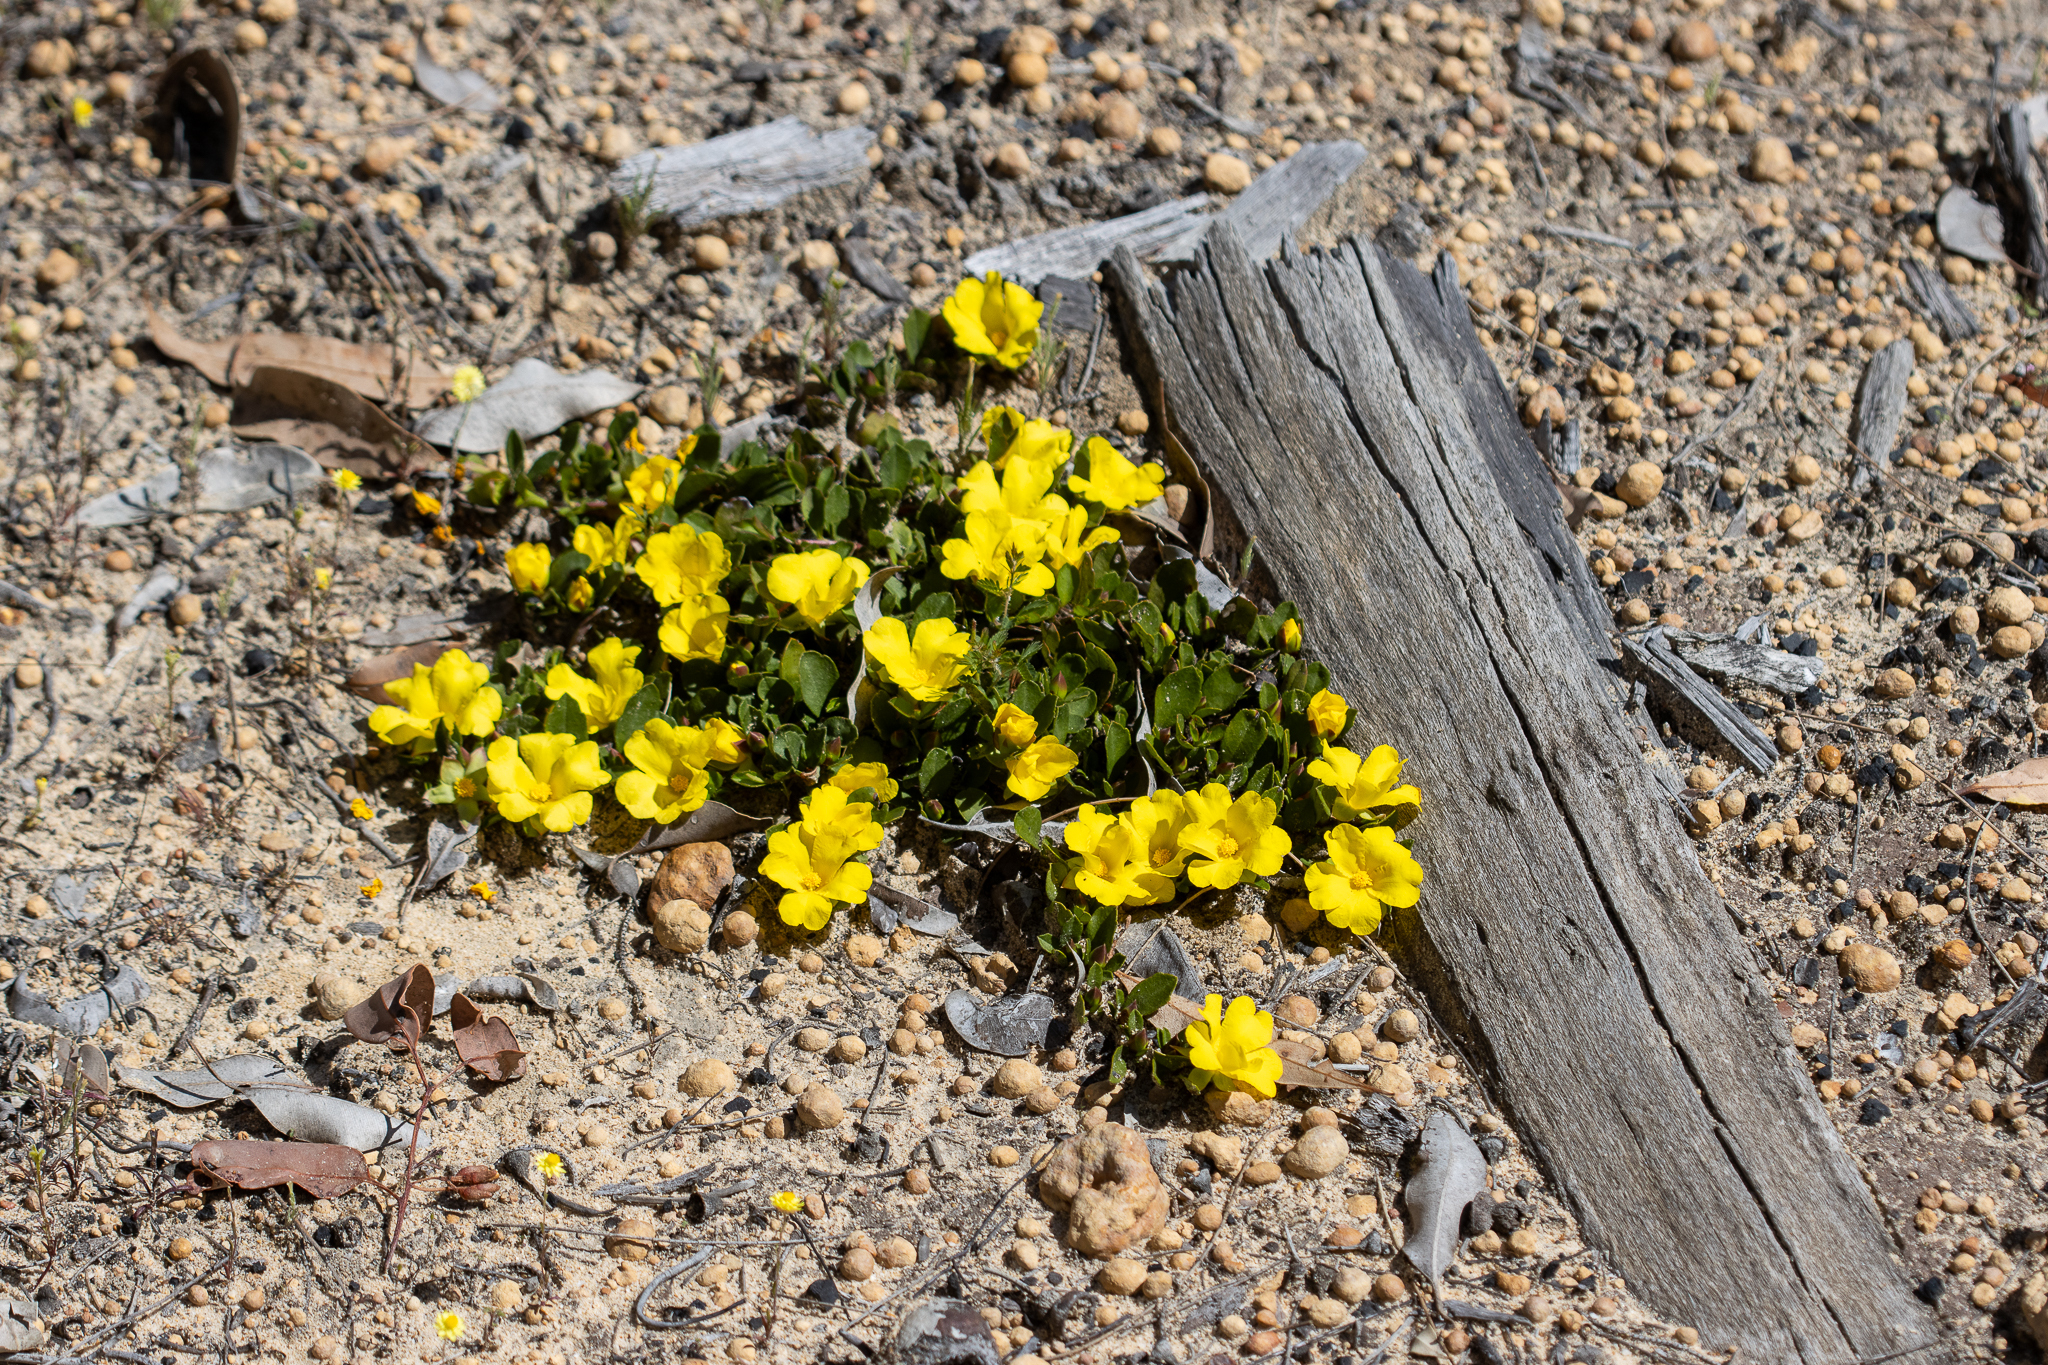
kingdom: Plantae
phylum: Tracheophyta
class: Magnoliopsida
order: Dilleniales
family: Dilleniaceae
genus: Hibbertia
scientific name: Hibbertia hortiorum
